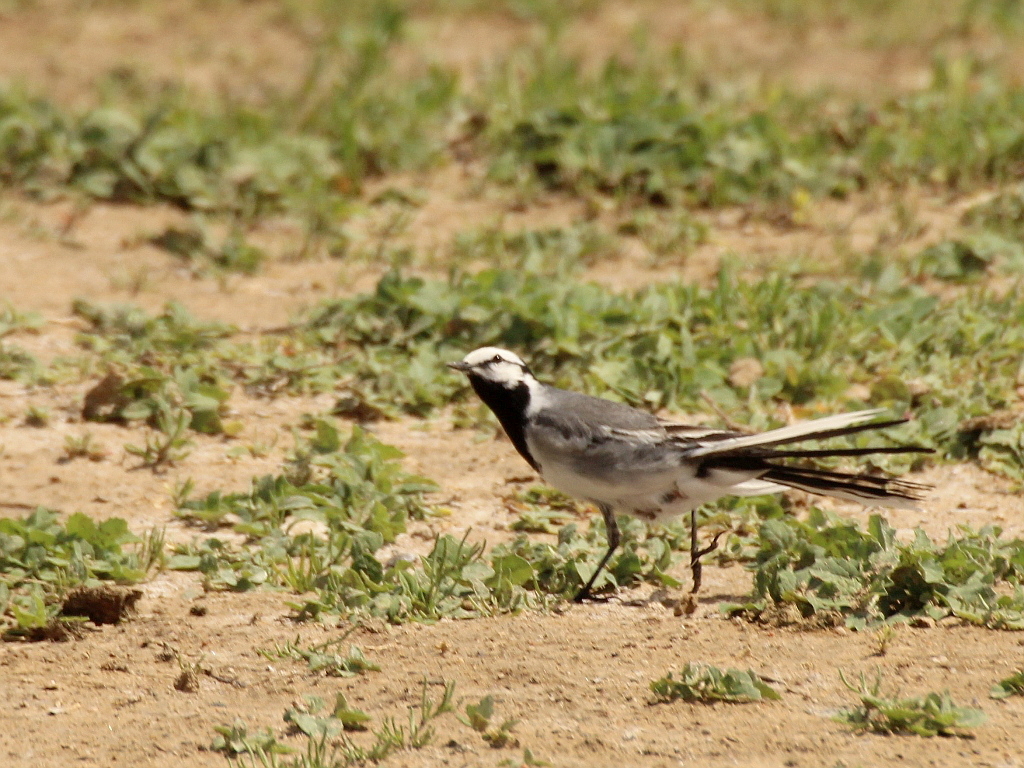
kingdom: Animalia
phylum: Chordata
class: Aves
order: Passeriformes
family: Motacillidae
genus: Motacilla
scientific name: Motacilla alba
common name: White wagtail
